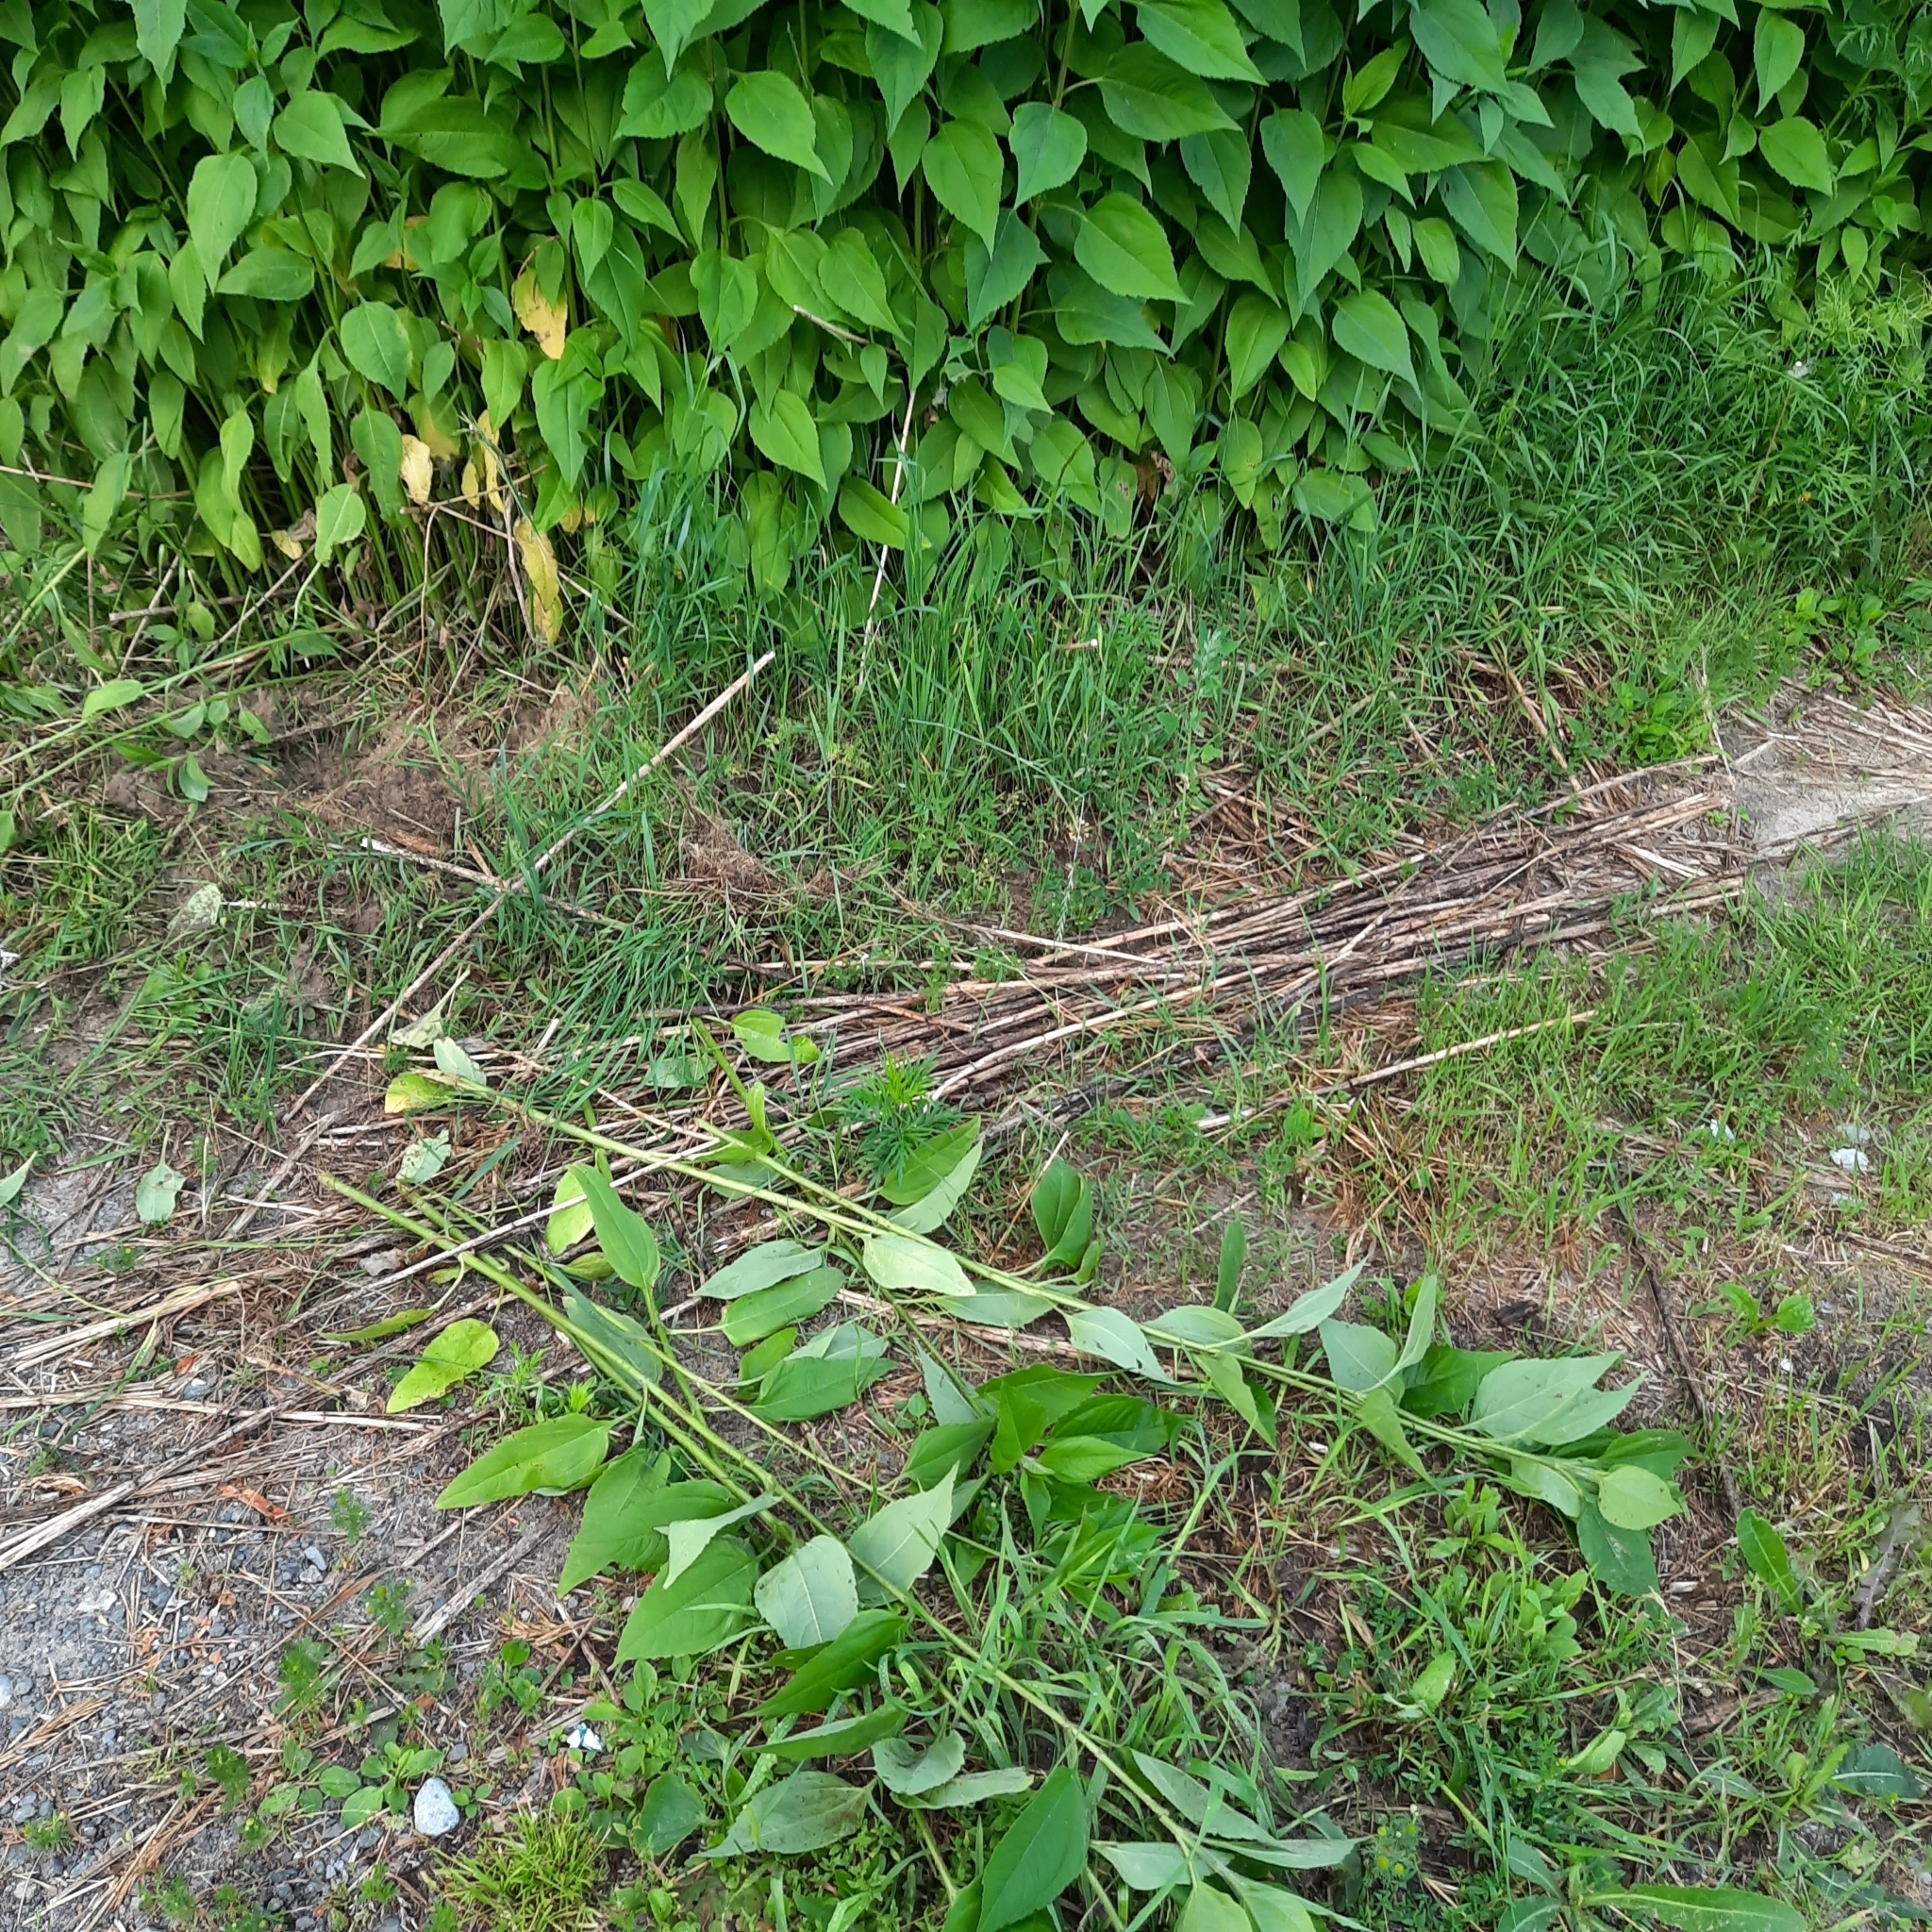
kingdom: Plantae
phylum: Tracheophyta
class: Magnoliopsida
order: Asterales
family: Asteraceae
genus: Helianthus
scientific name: Helianthus tuberosus
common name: Jerusalem artichoke
